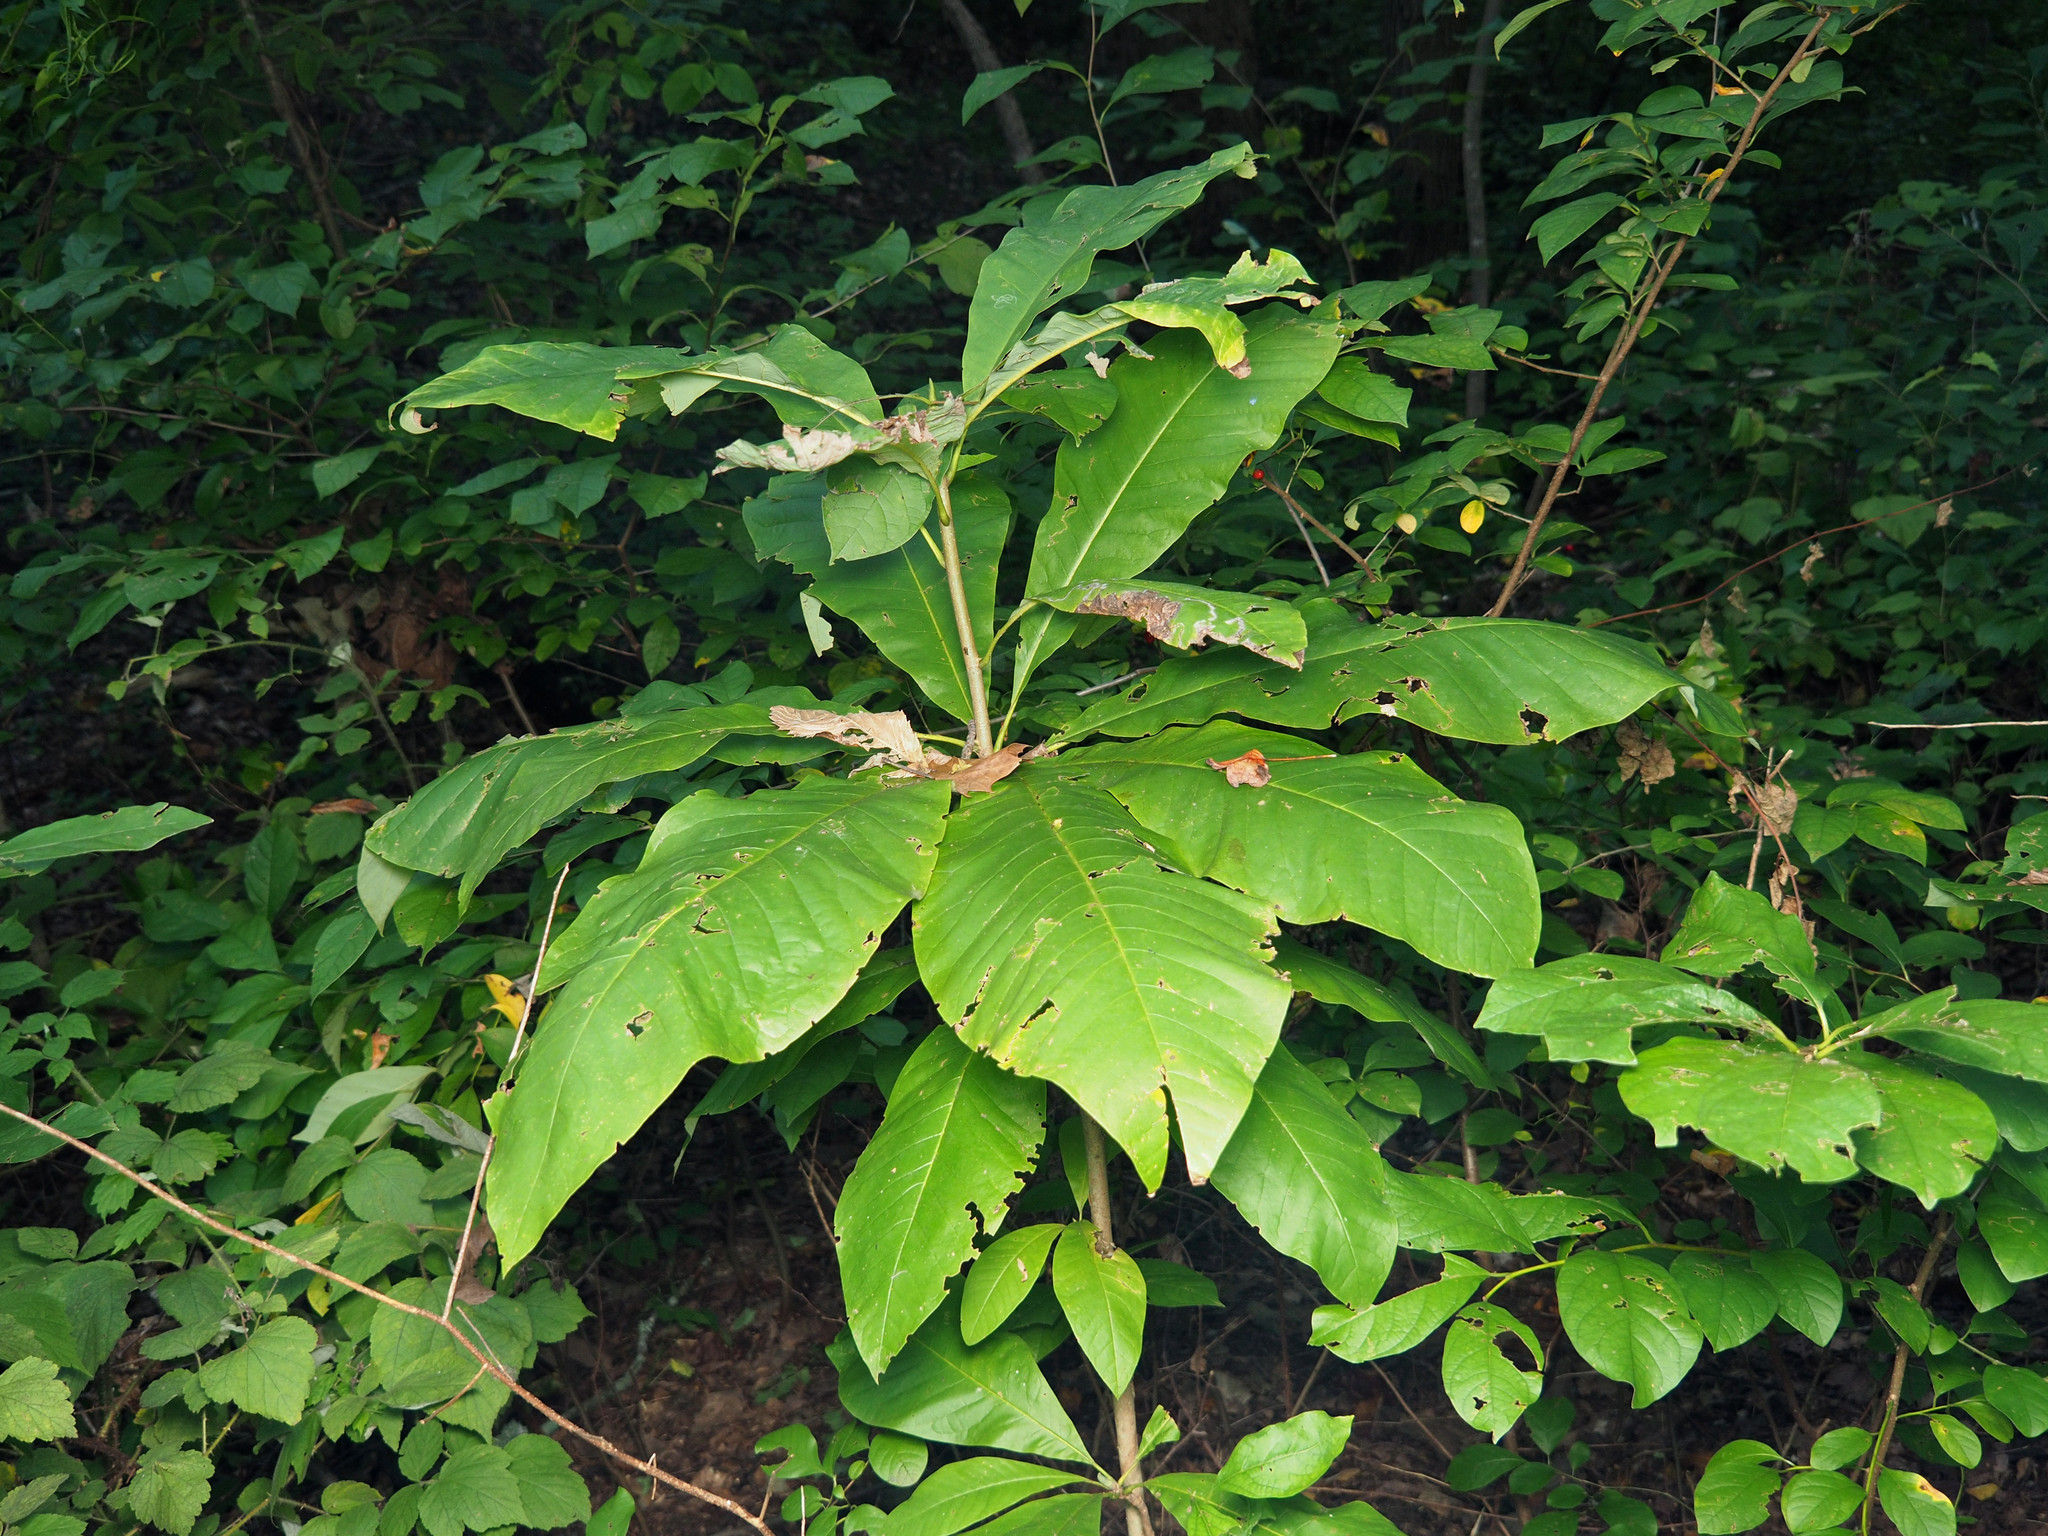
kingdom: Plantae
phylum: Tracheophyta
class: Magnoliopsida
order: Magnoliales
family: Magnoliaceae
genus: Magnolia
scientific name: Magnolia tripetala
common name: Umbrella magnolia
